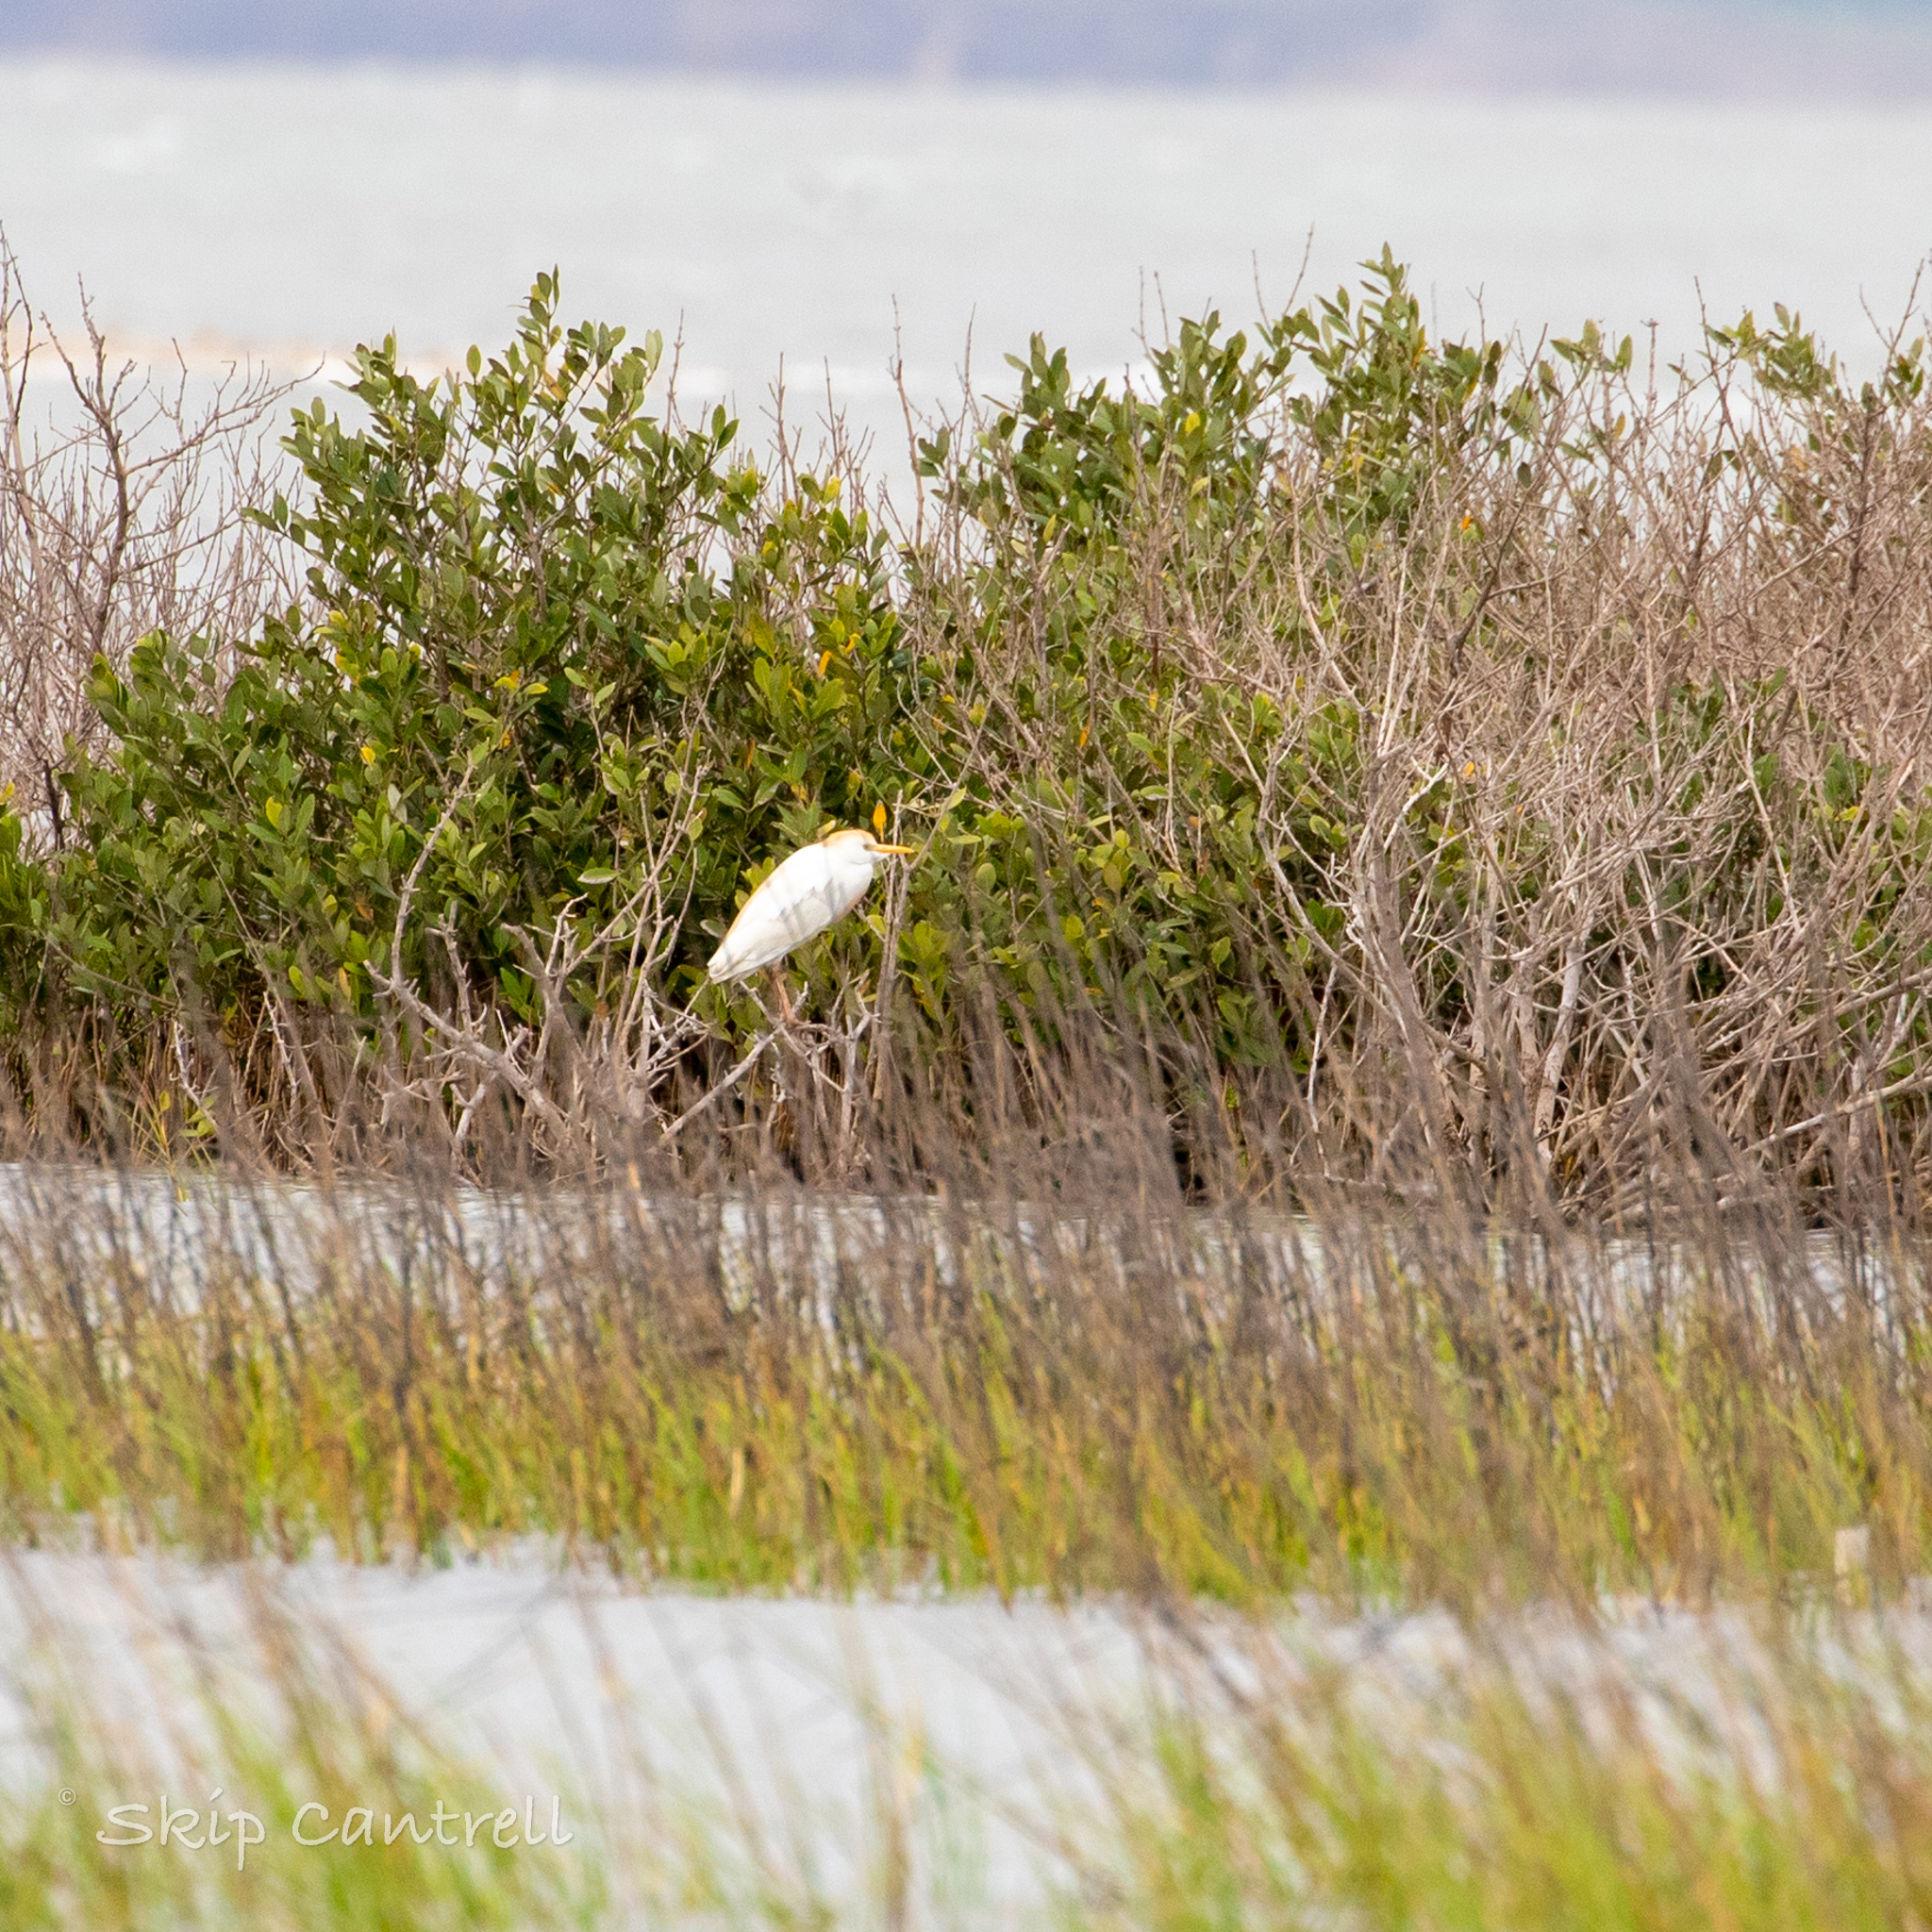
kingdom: Animalia
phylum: Chordata
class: Aves
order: Pelecaniformes
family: Ardeidae
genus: Bubulcus
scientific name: Bubulcus ibis
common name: Cattle egret
